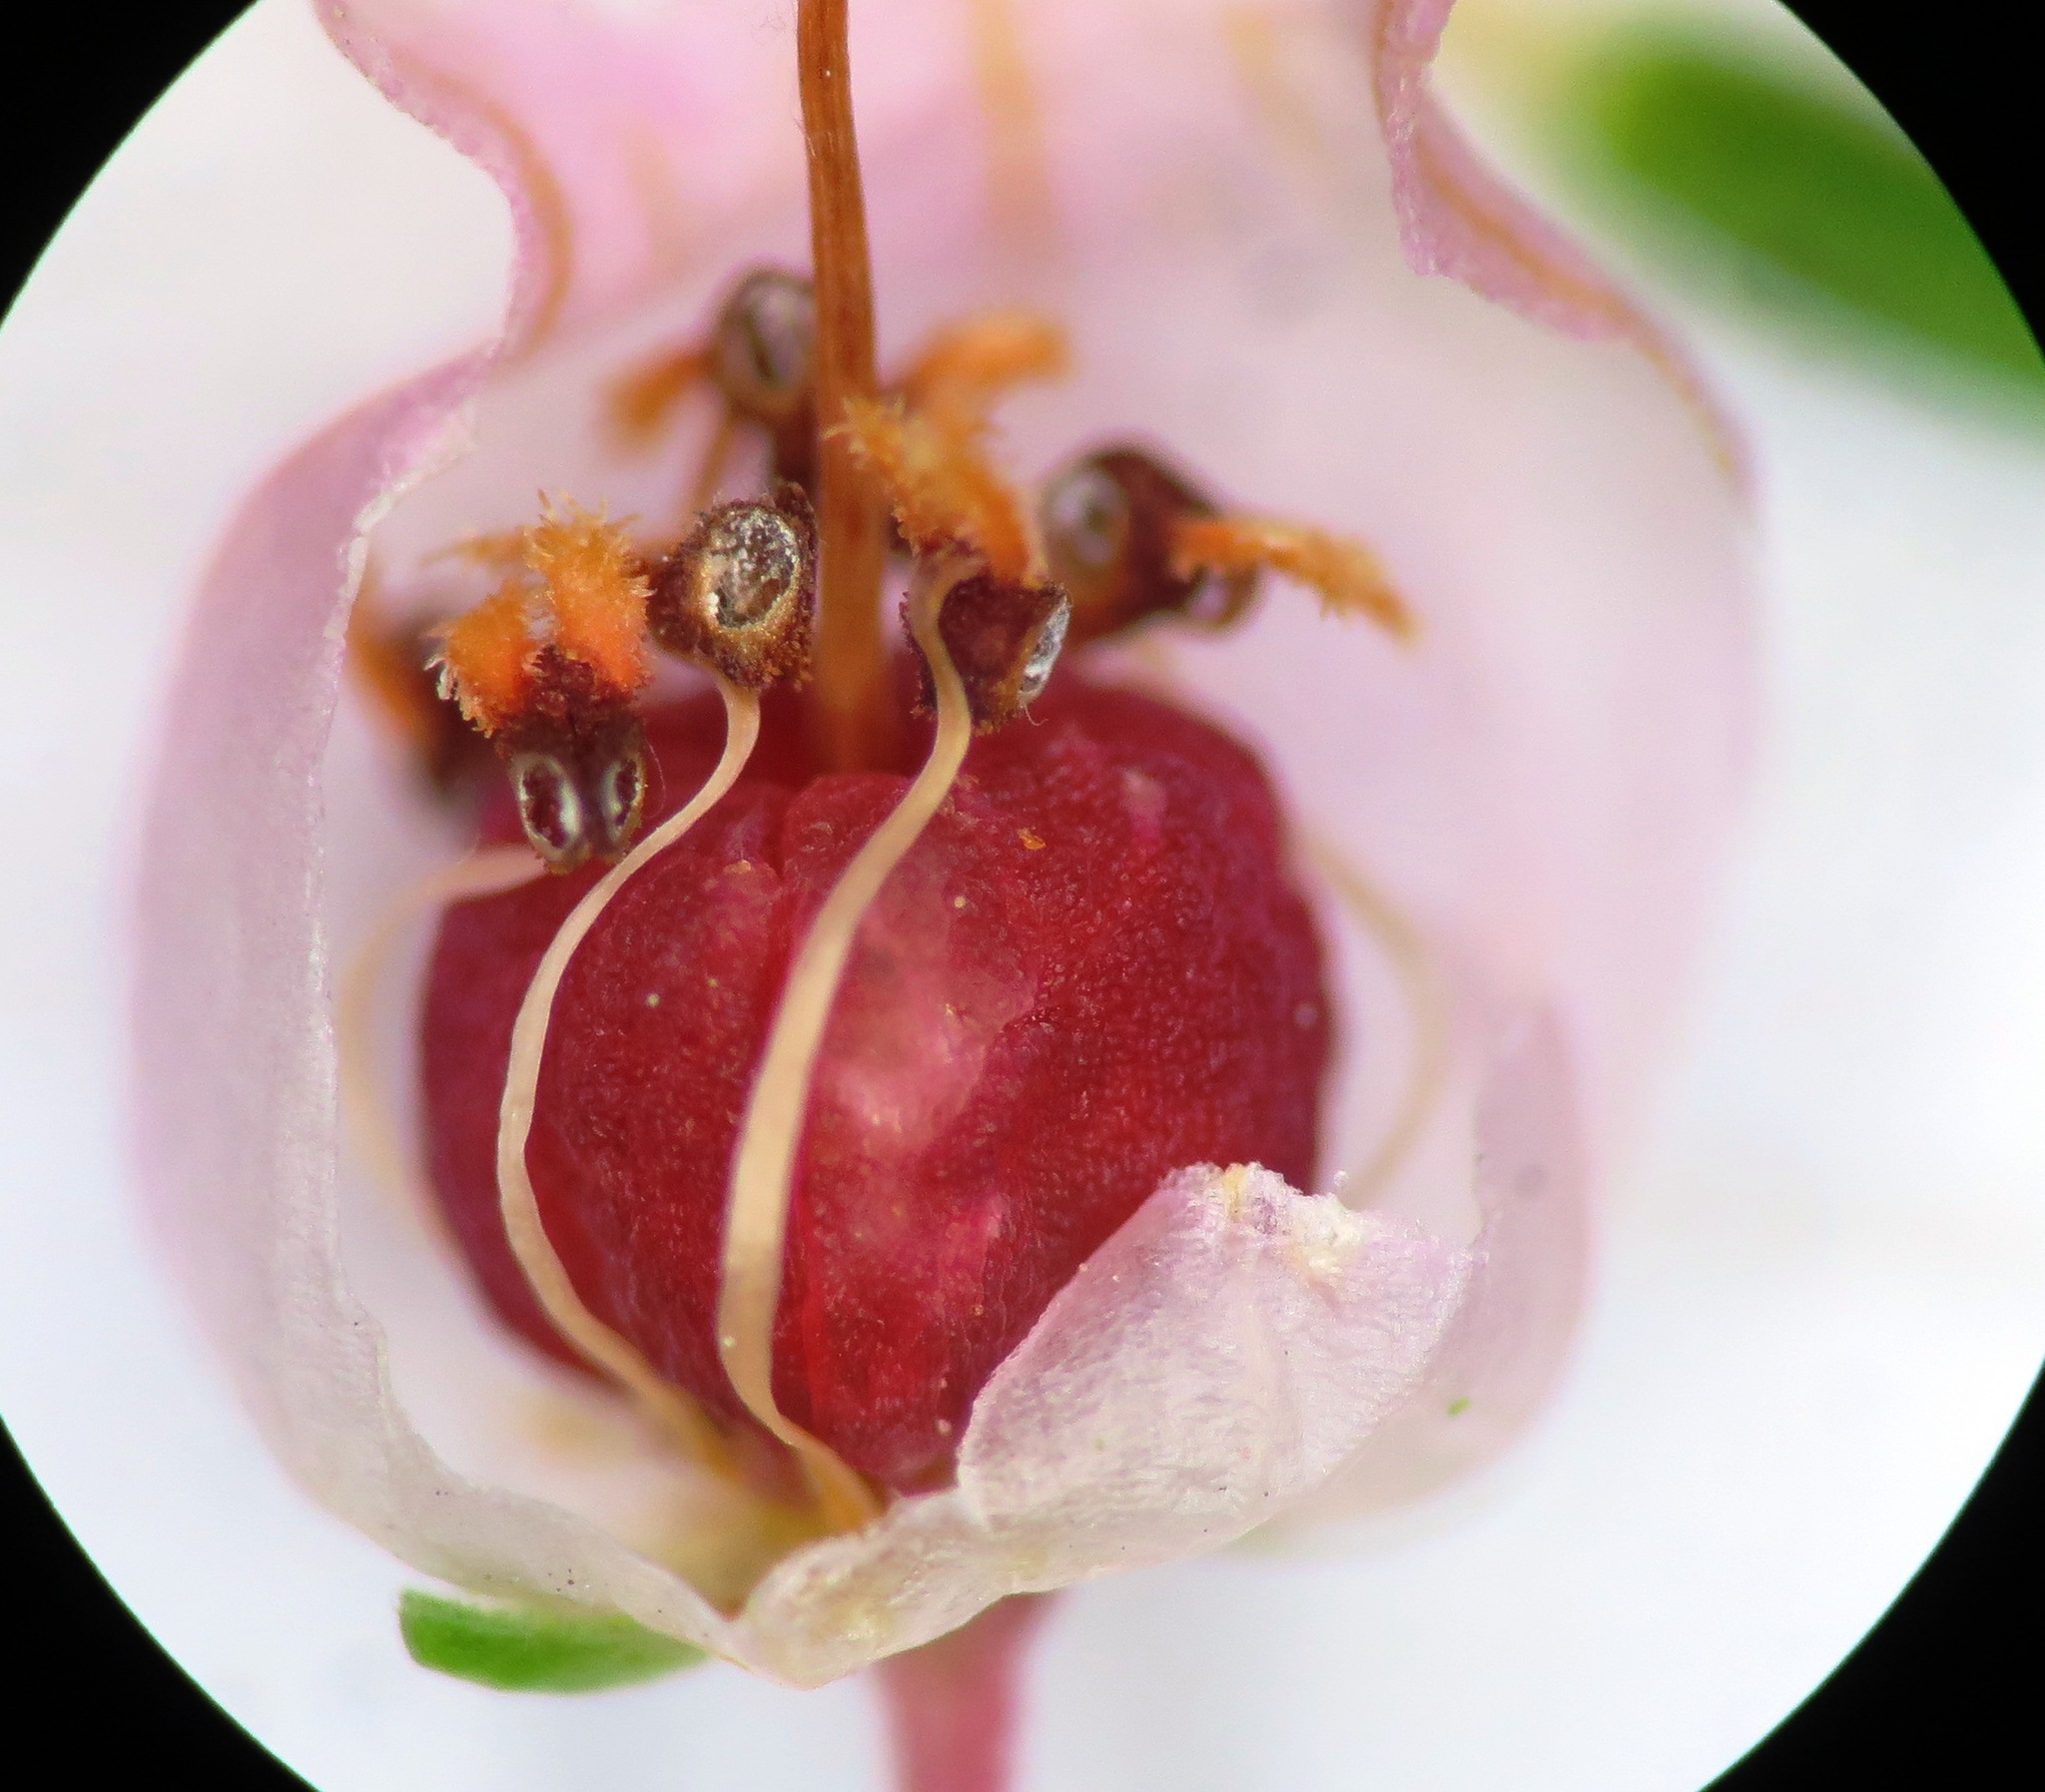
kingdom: Plantae
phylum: Tracheophyta
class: Magnoliopsida
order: Ericales
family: Ericaceae
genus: Erica
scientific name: Erica tenella
